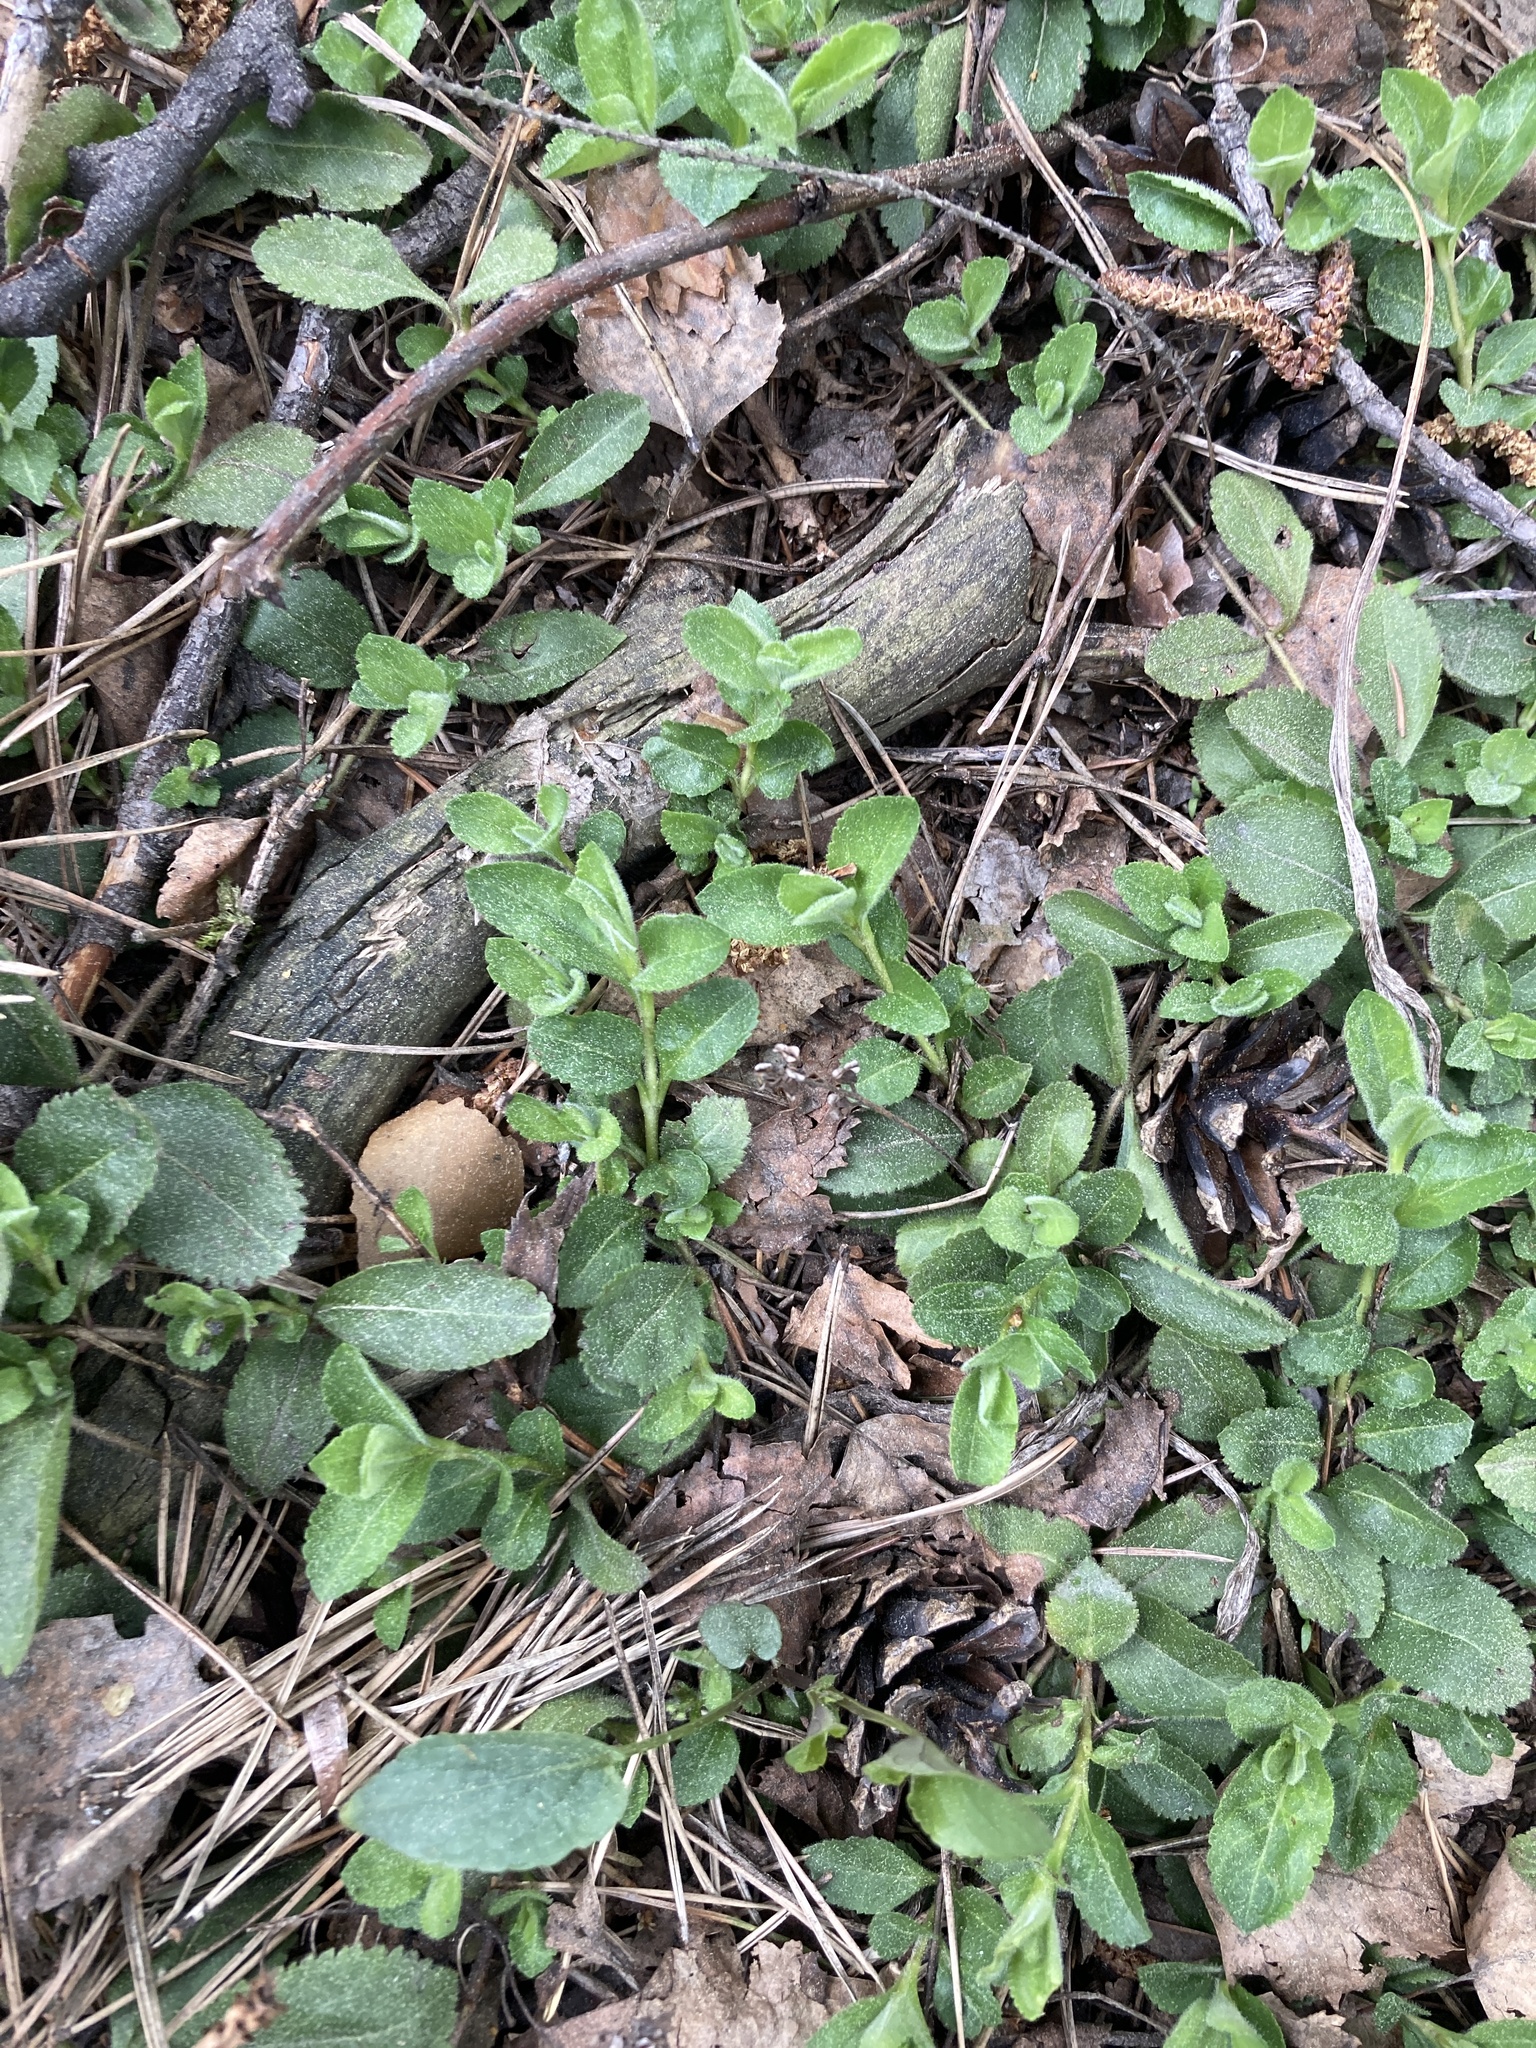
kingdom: Plantae
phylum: Tracheophyta
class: Magnoliopsida
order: Lamiales
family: Plantaginaceae
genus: Veronica
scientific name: Veronica officinalis
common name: Common speedwell
